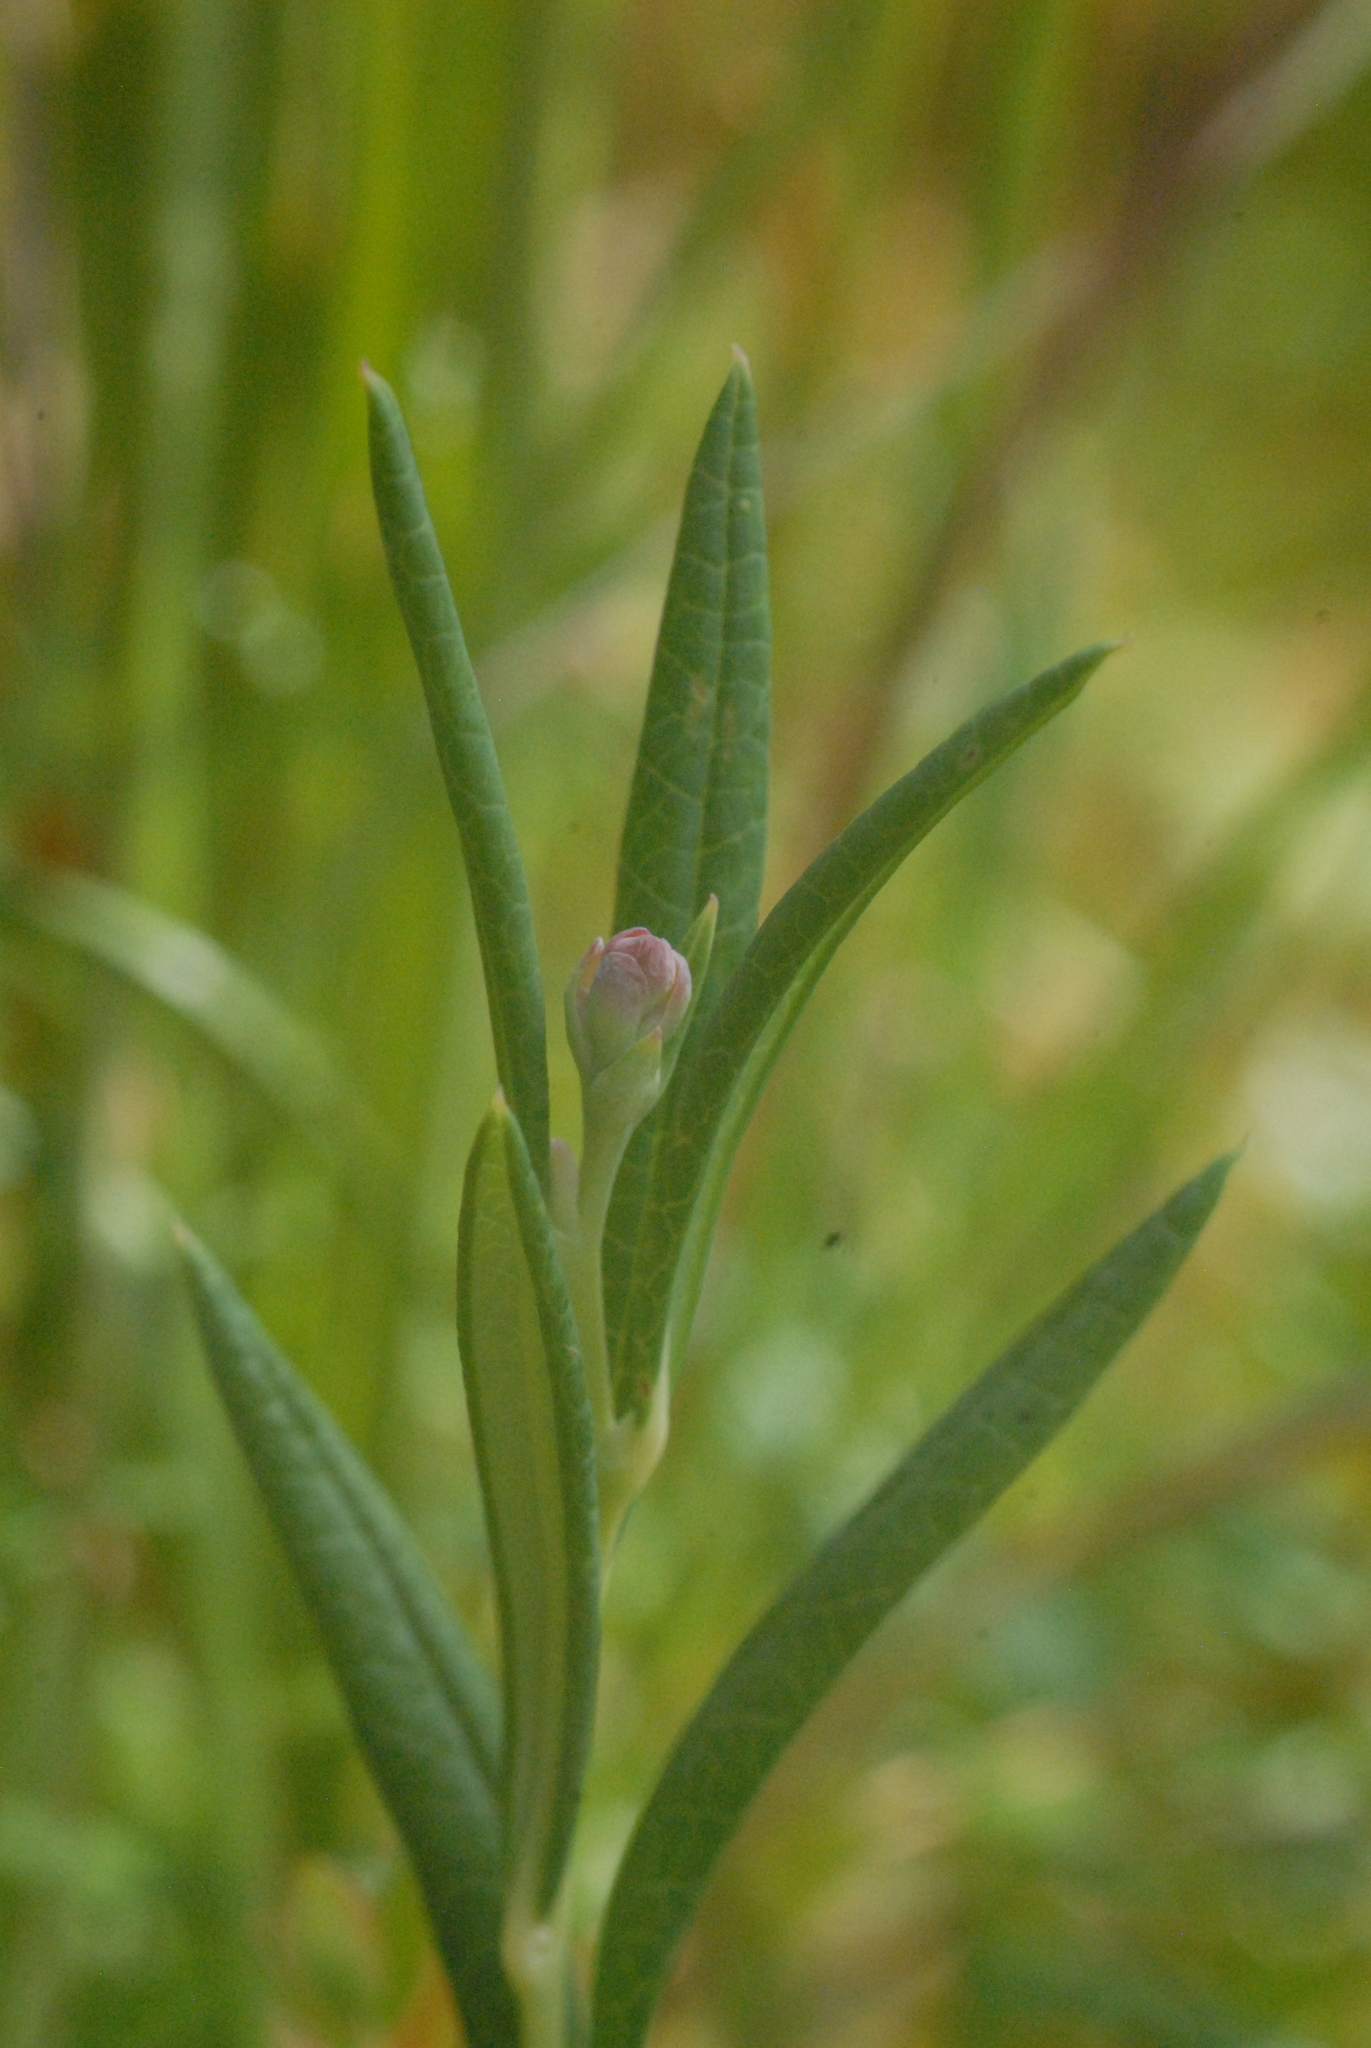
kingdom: Plantae
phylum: Tracheophyta
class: Magnoliopsida
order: Ericales
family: Ericaceae
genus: Andromeda
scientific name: Andromeda polifolia
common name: Bog-rosemary
